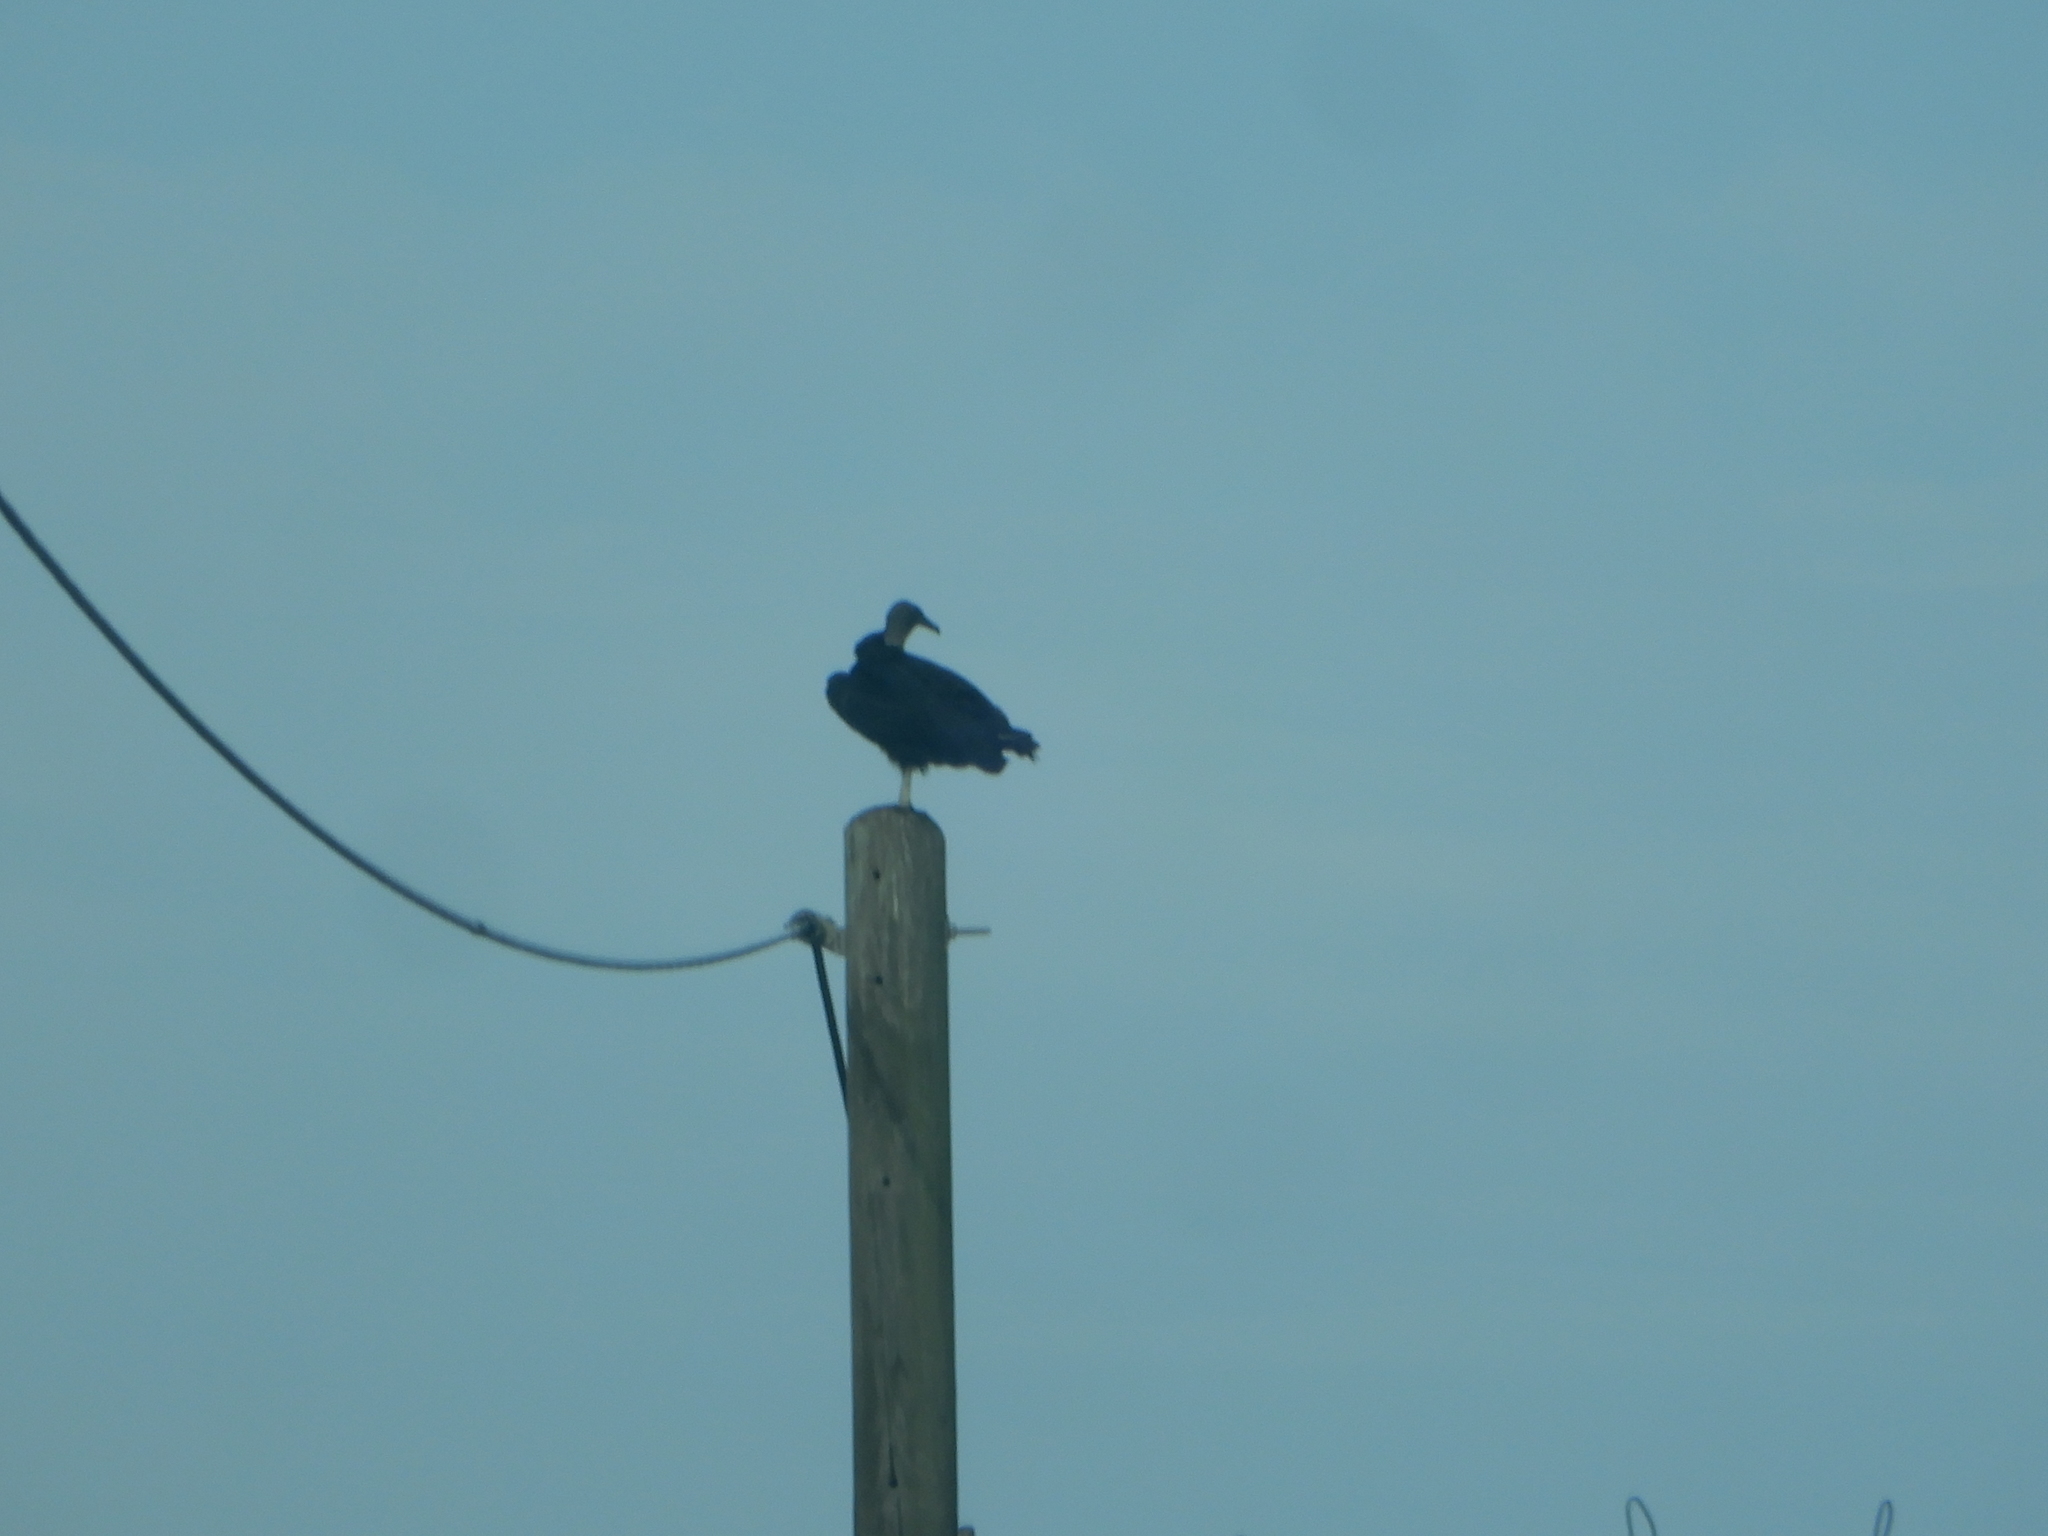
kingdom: Animalia
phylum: Chordata
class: Aves
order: Accipitriformes
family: Cathartidae
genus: Coragyps
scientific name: Coragyps atratus
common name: Black vulture
